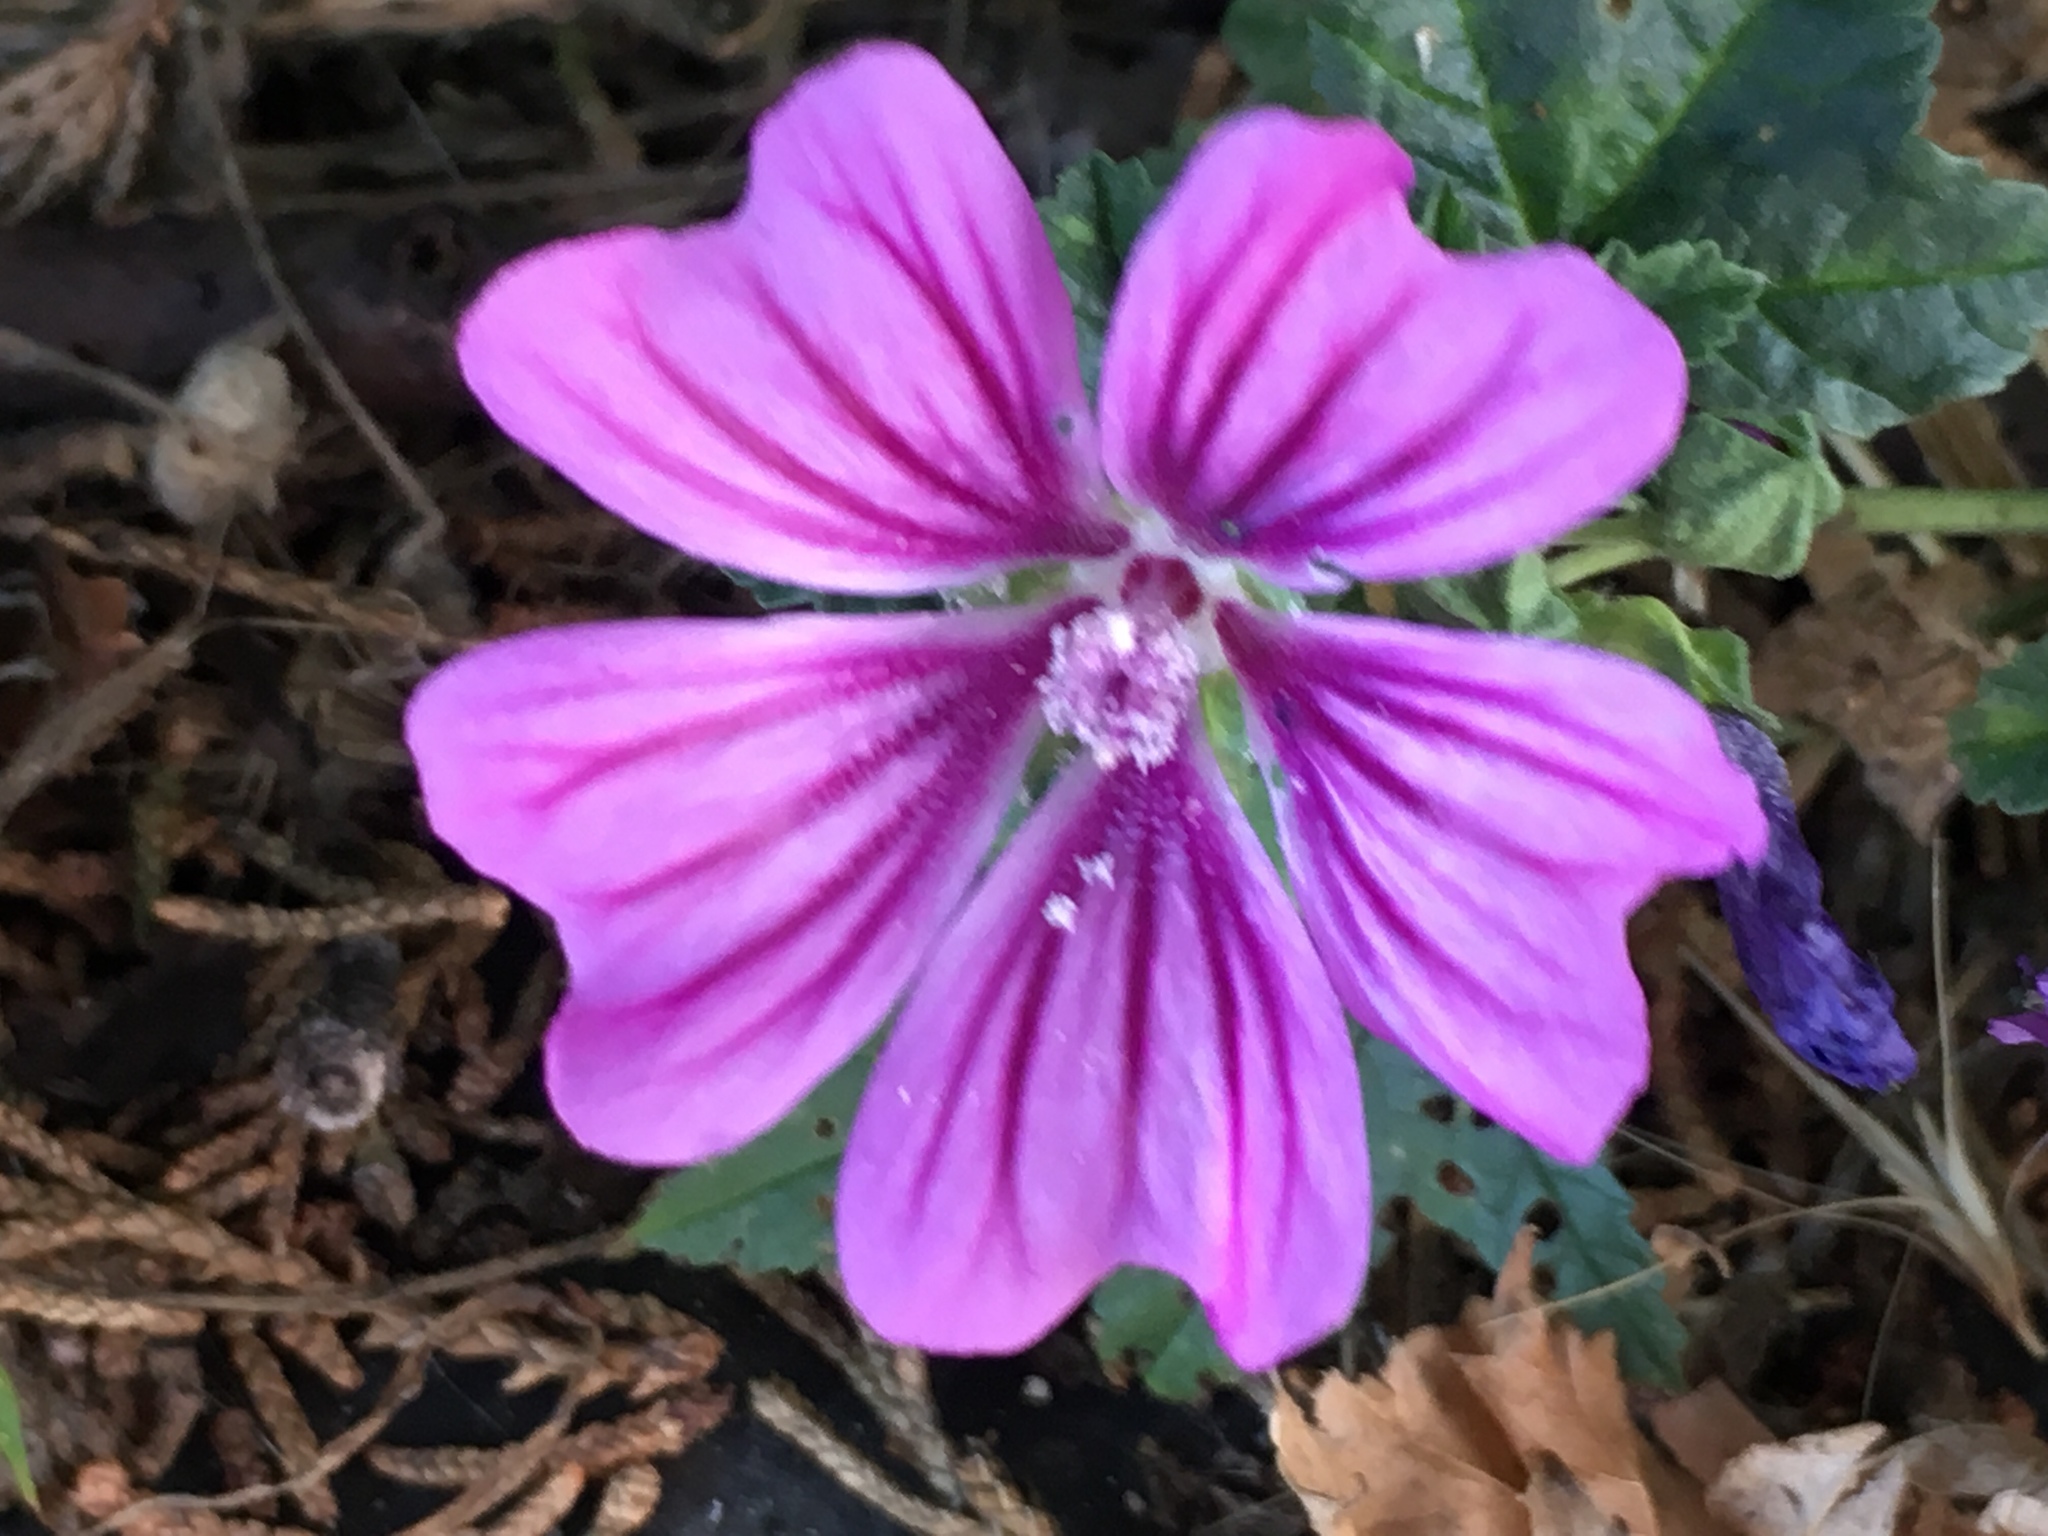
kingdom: Plantae
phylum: Tracheophyta
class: Magnoliopsida
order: Malvales
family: Malvaceae
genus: Malva
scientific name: Malva sylvestris
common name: Common mallow
